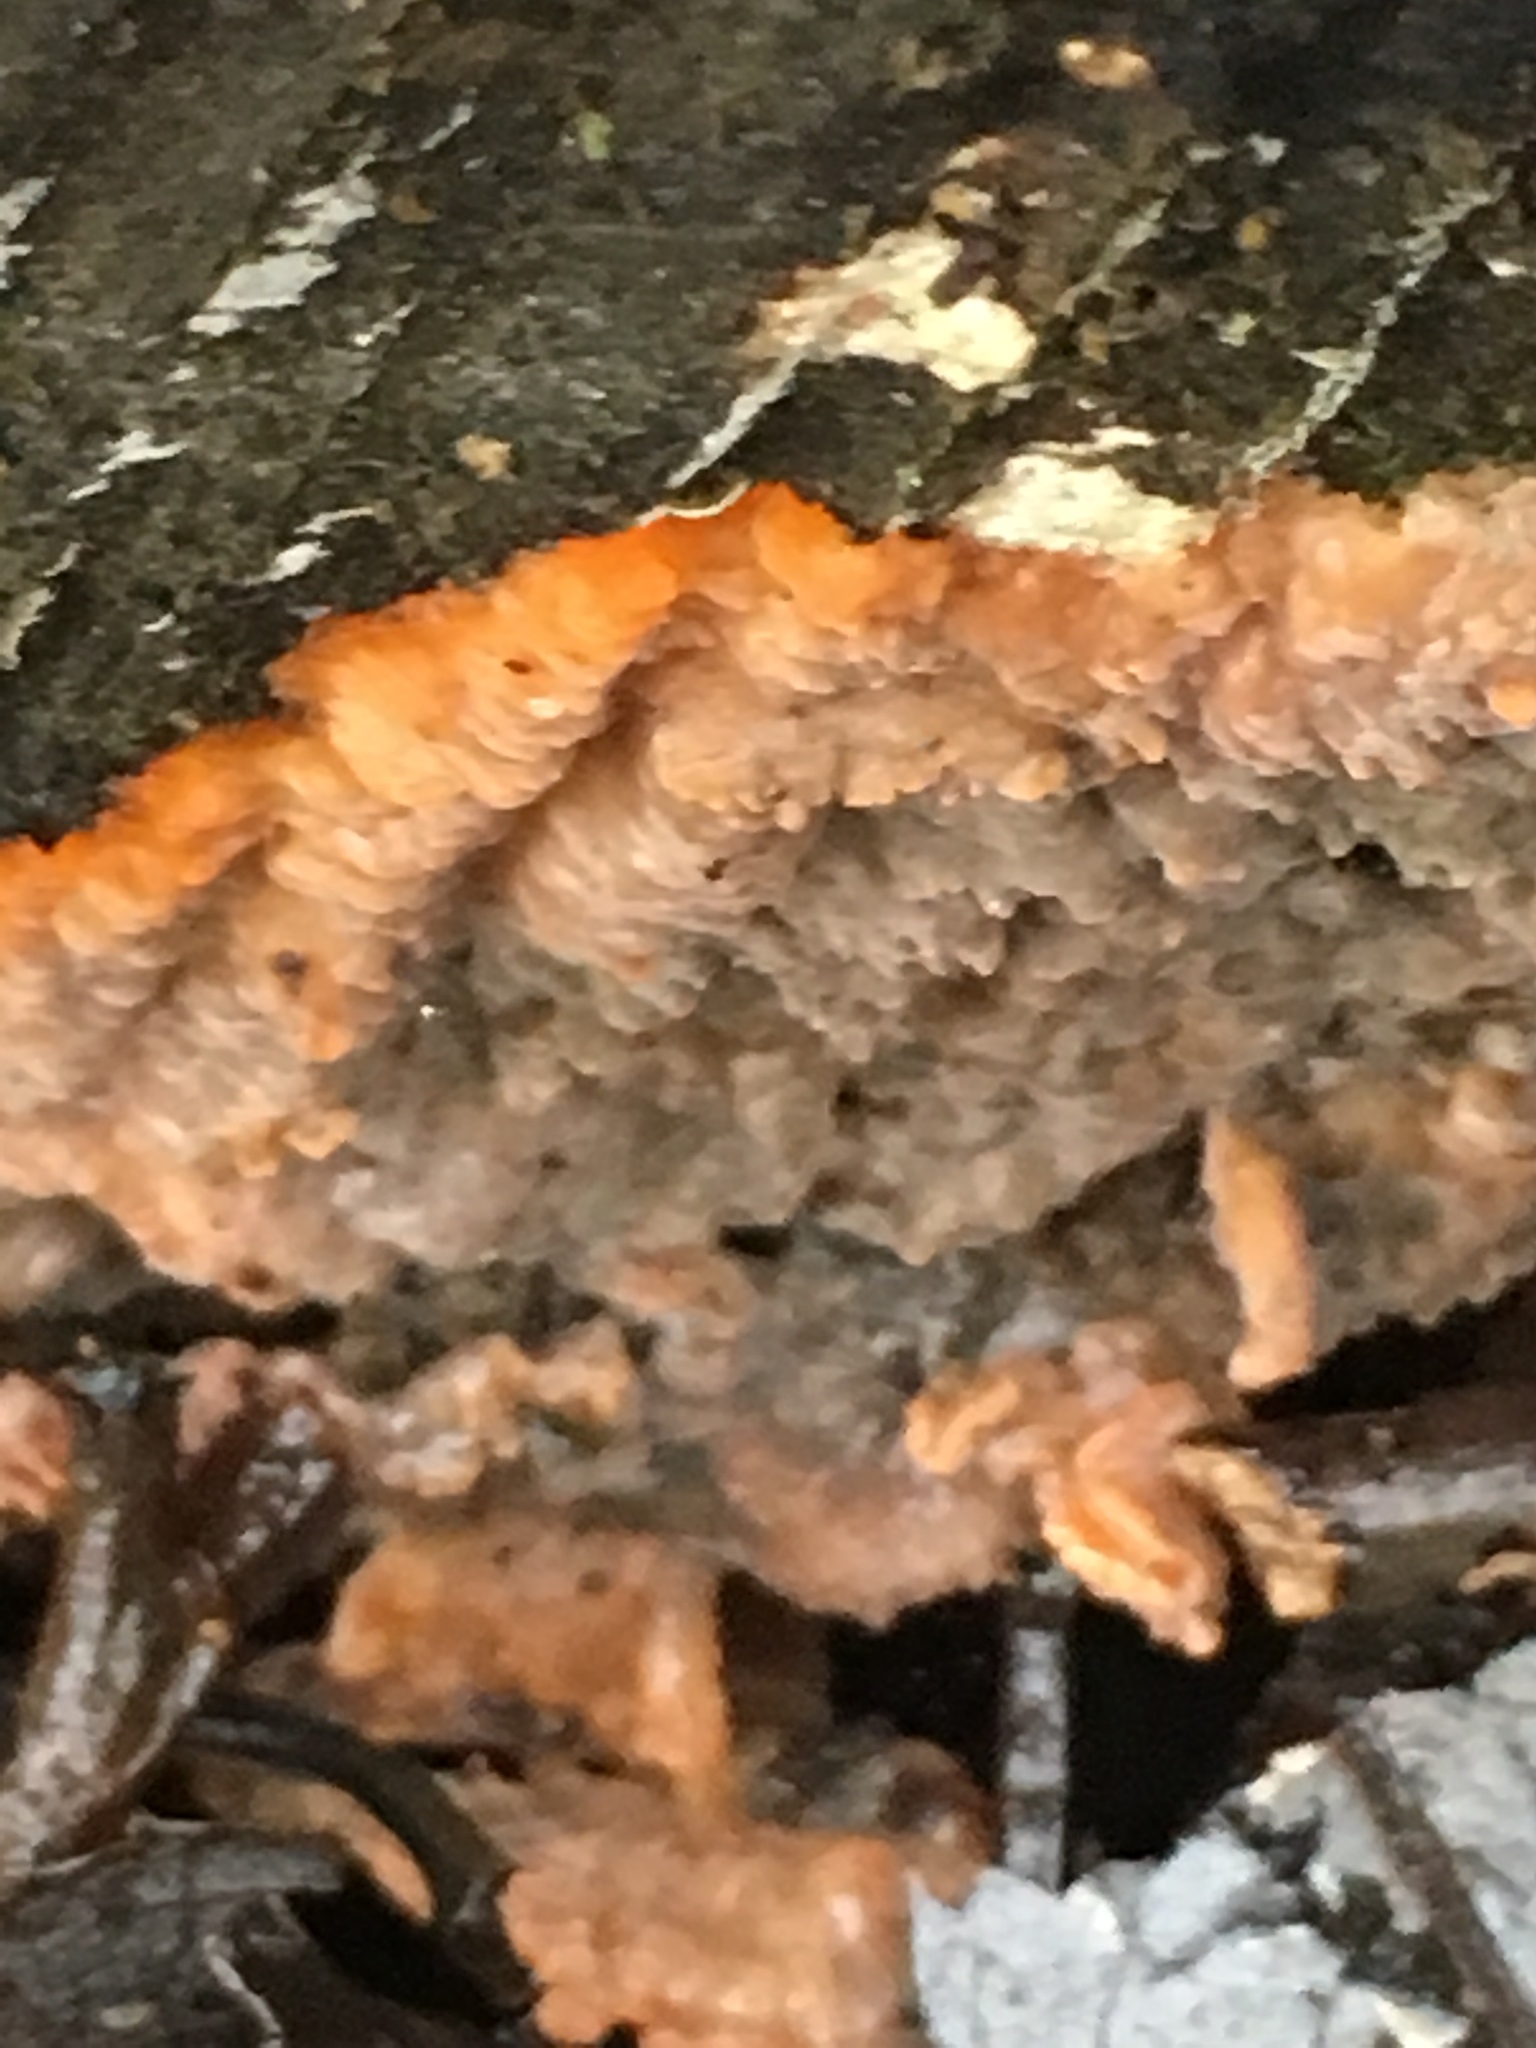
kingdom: Fungi
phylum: Basidiomycota
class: Agaricomycetes
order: Polyporales
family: Meruliaceae
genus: Phlebia
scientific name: Phlebia radiata
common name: Wrinkled crust
